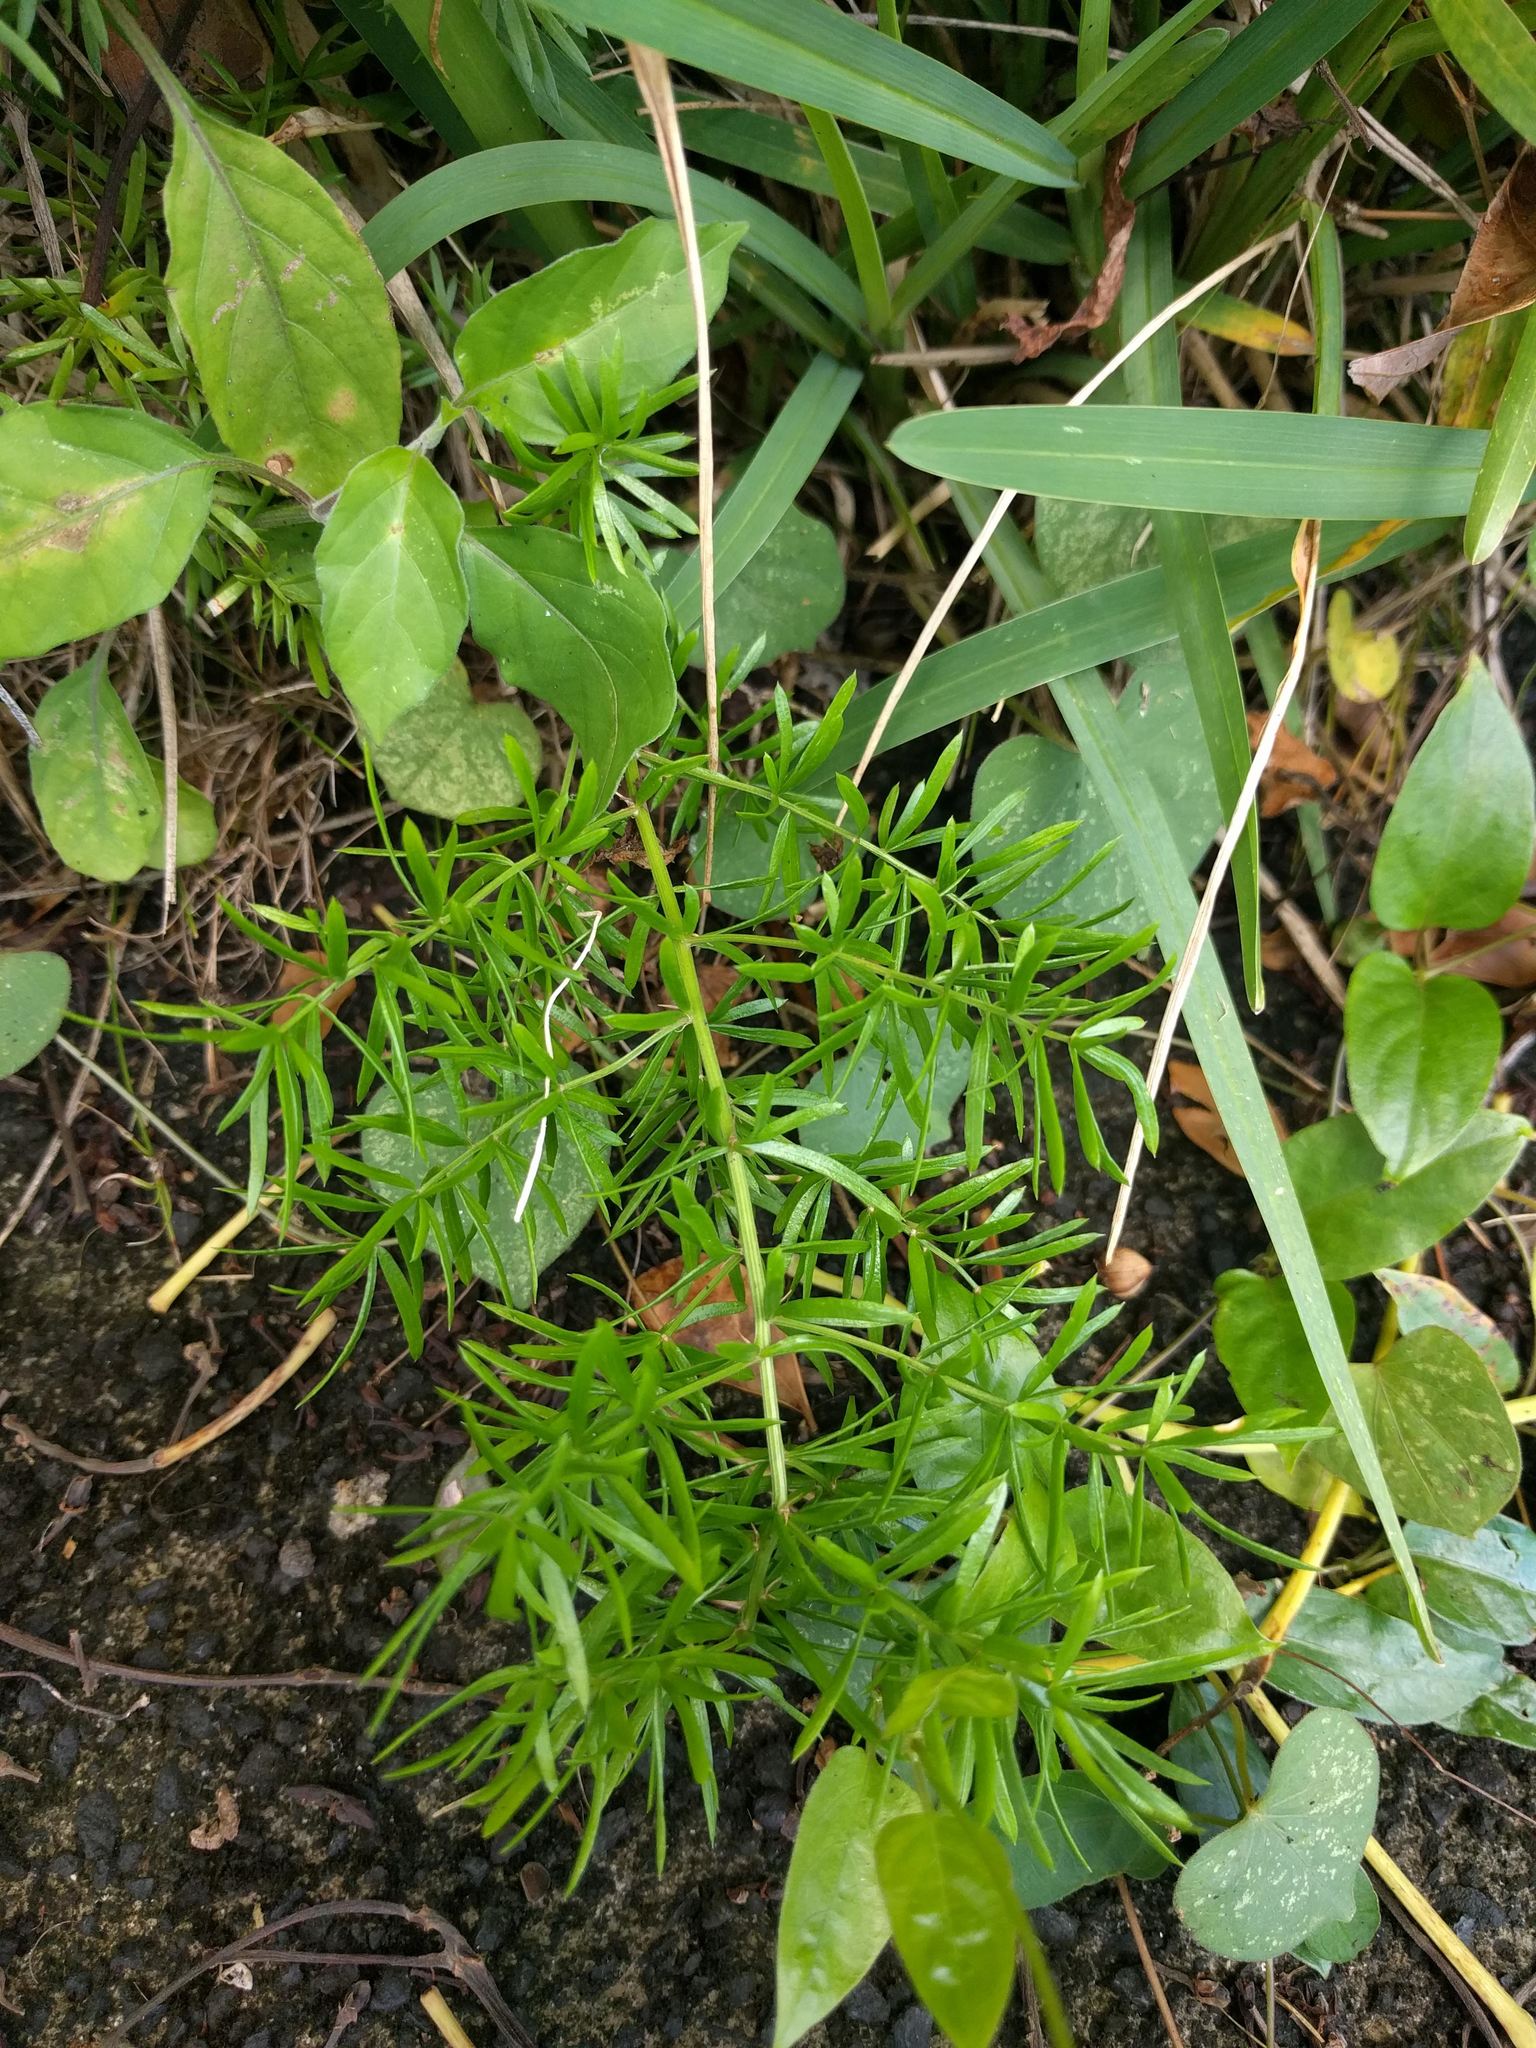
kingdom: Plantae
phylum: Tracheophyta
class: Liliopsida
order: Asparagales
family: Asparagaceae
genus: Asparagus
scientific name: Asparagus aethiopicus
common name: Sprenger's asparagus fern
